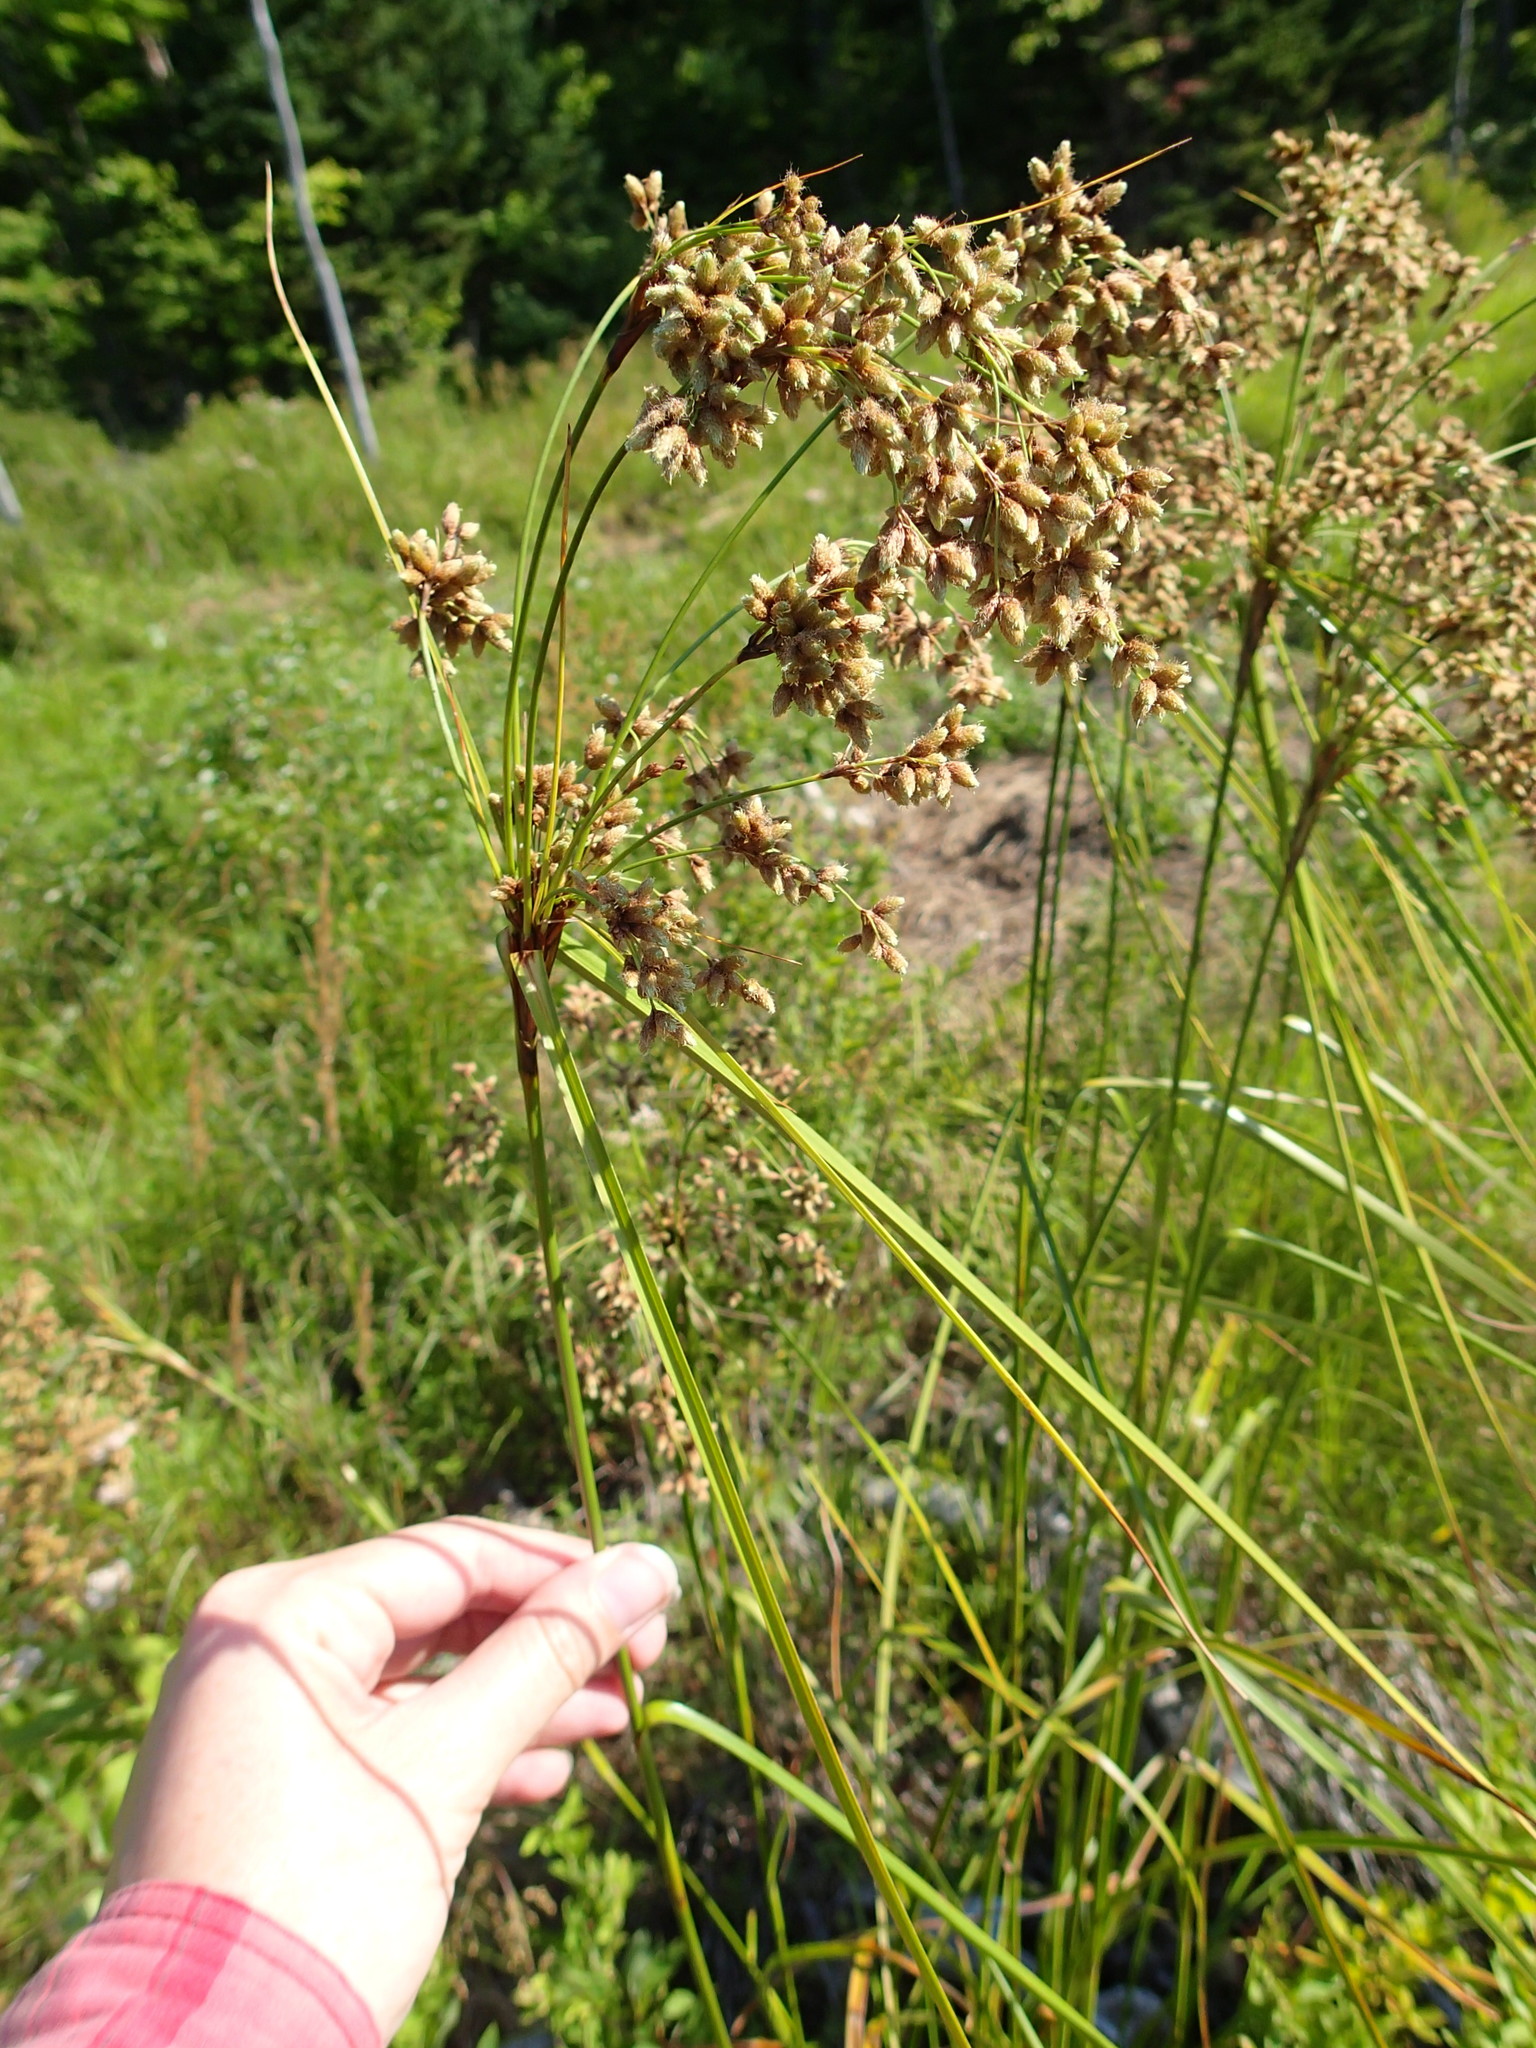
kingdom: Plantae
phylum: Tracheophyta
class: Liliopsida
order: Poales
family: Cyperaceae
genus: Scirpus
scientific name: Scirpus cyperinus
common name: Black-sheathed bulrush
